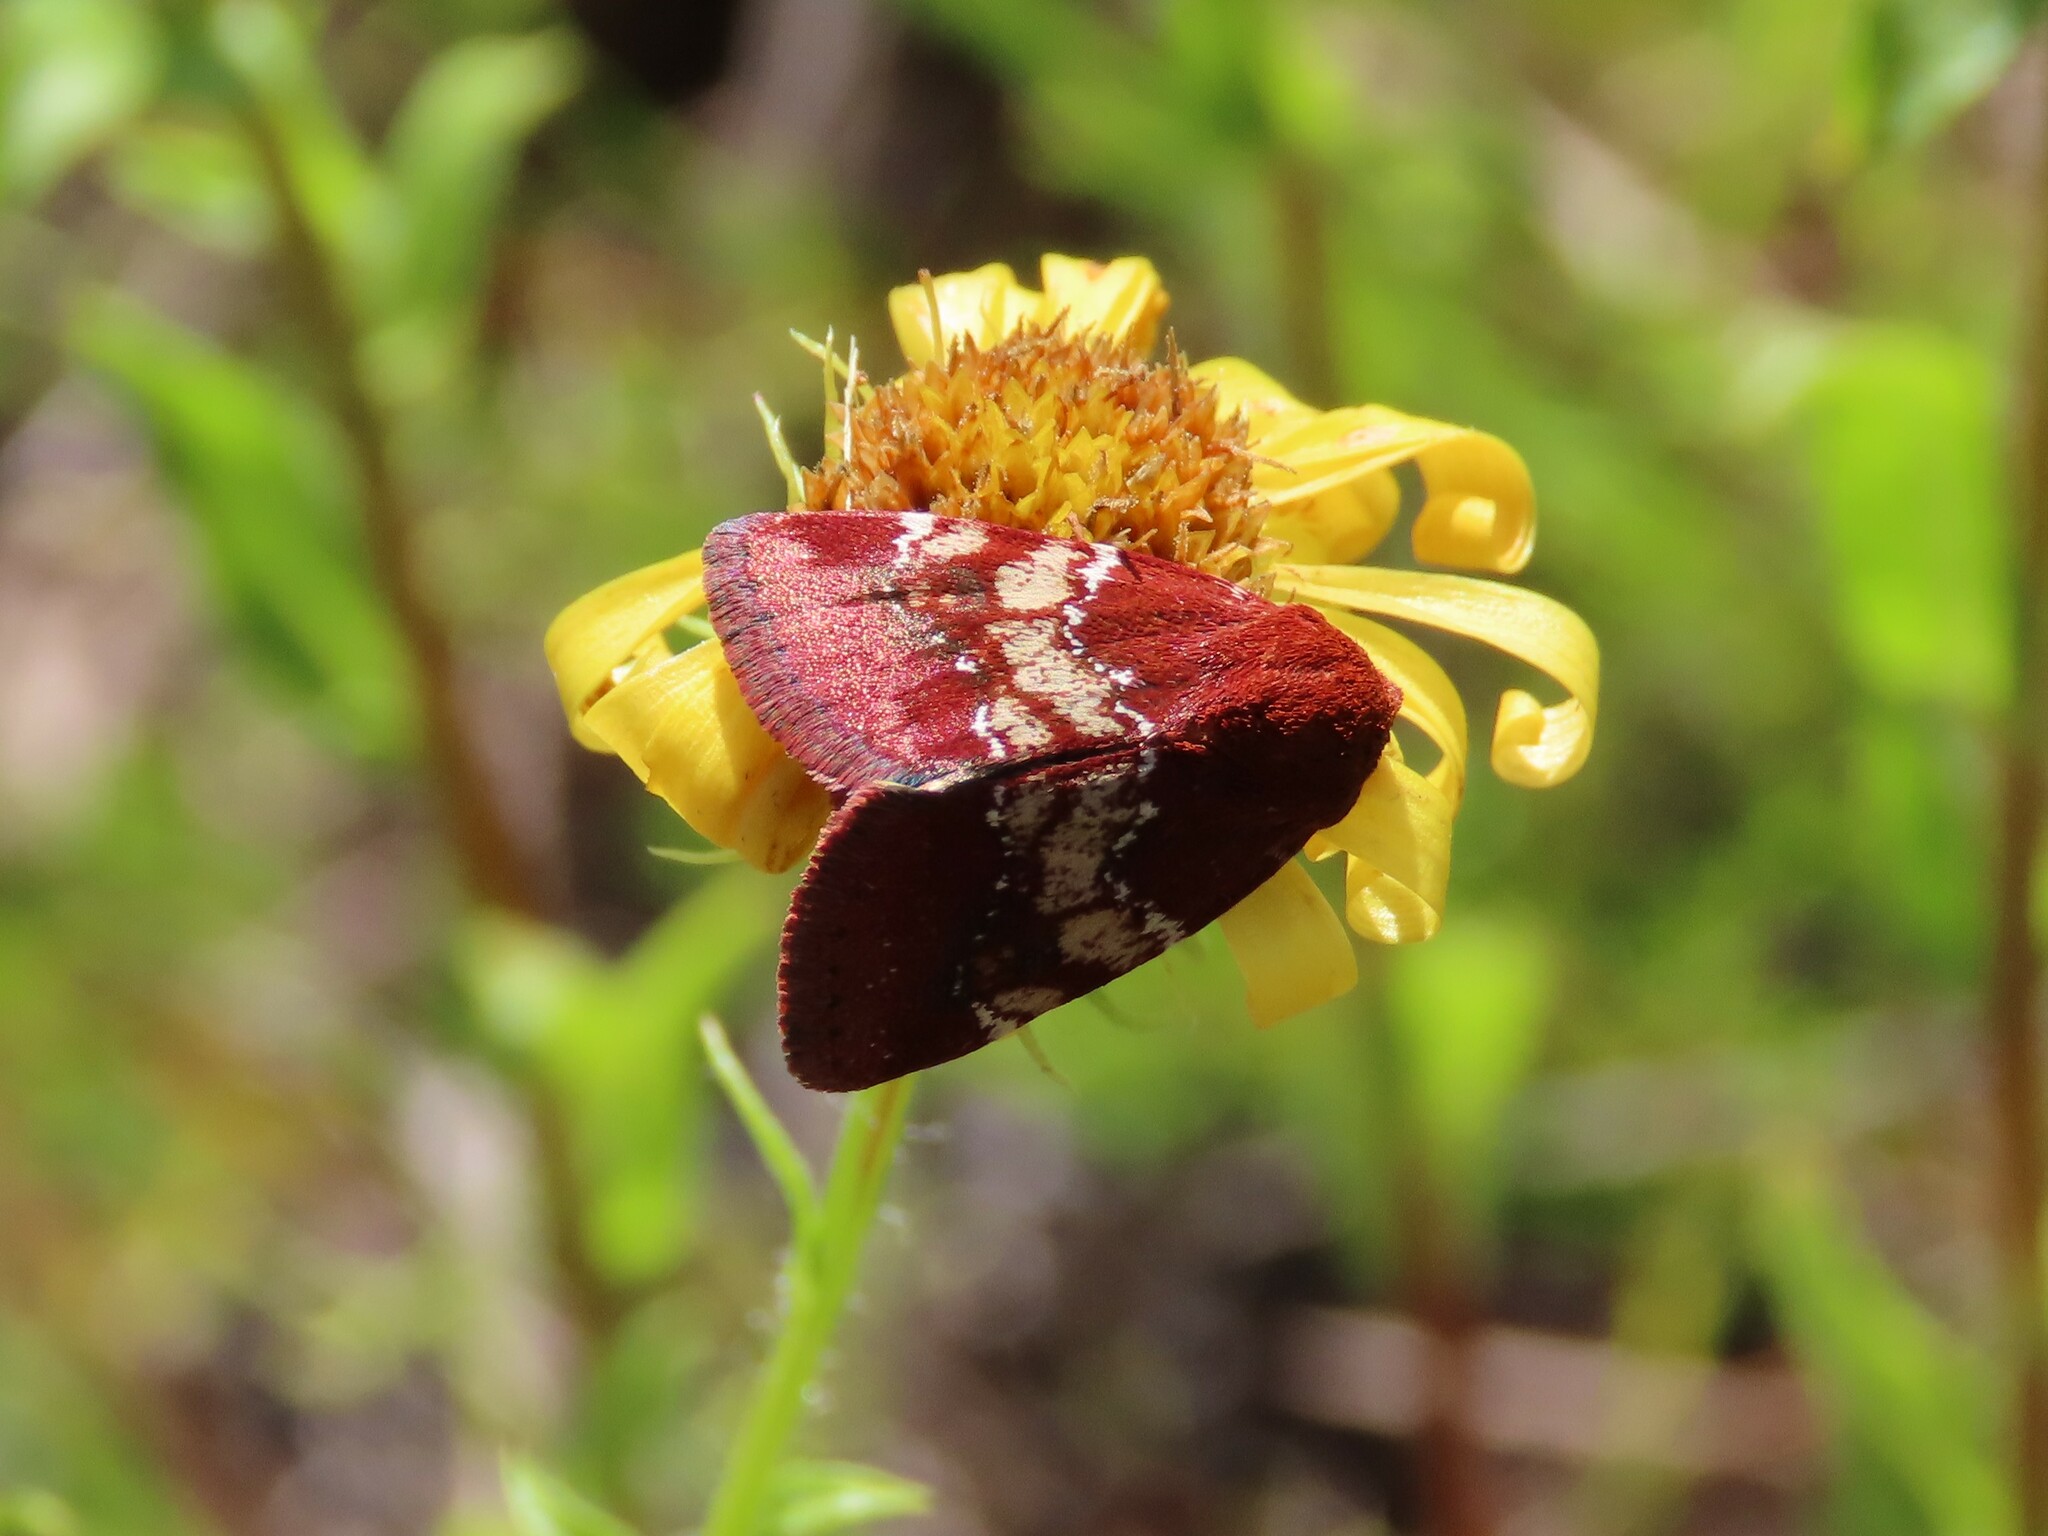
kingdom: Animalia
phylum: Arthropoda
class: Insecta
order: Lepidoptera
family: Noctuidae
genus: Schinia
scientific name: Schinia scissoides
